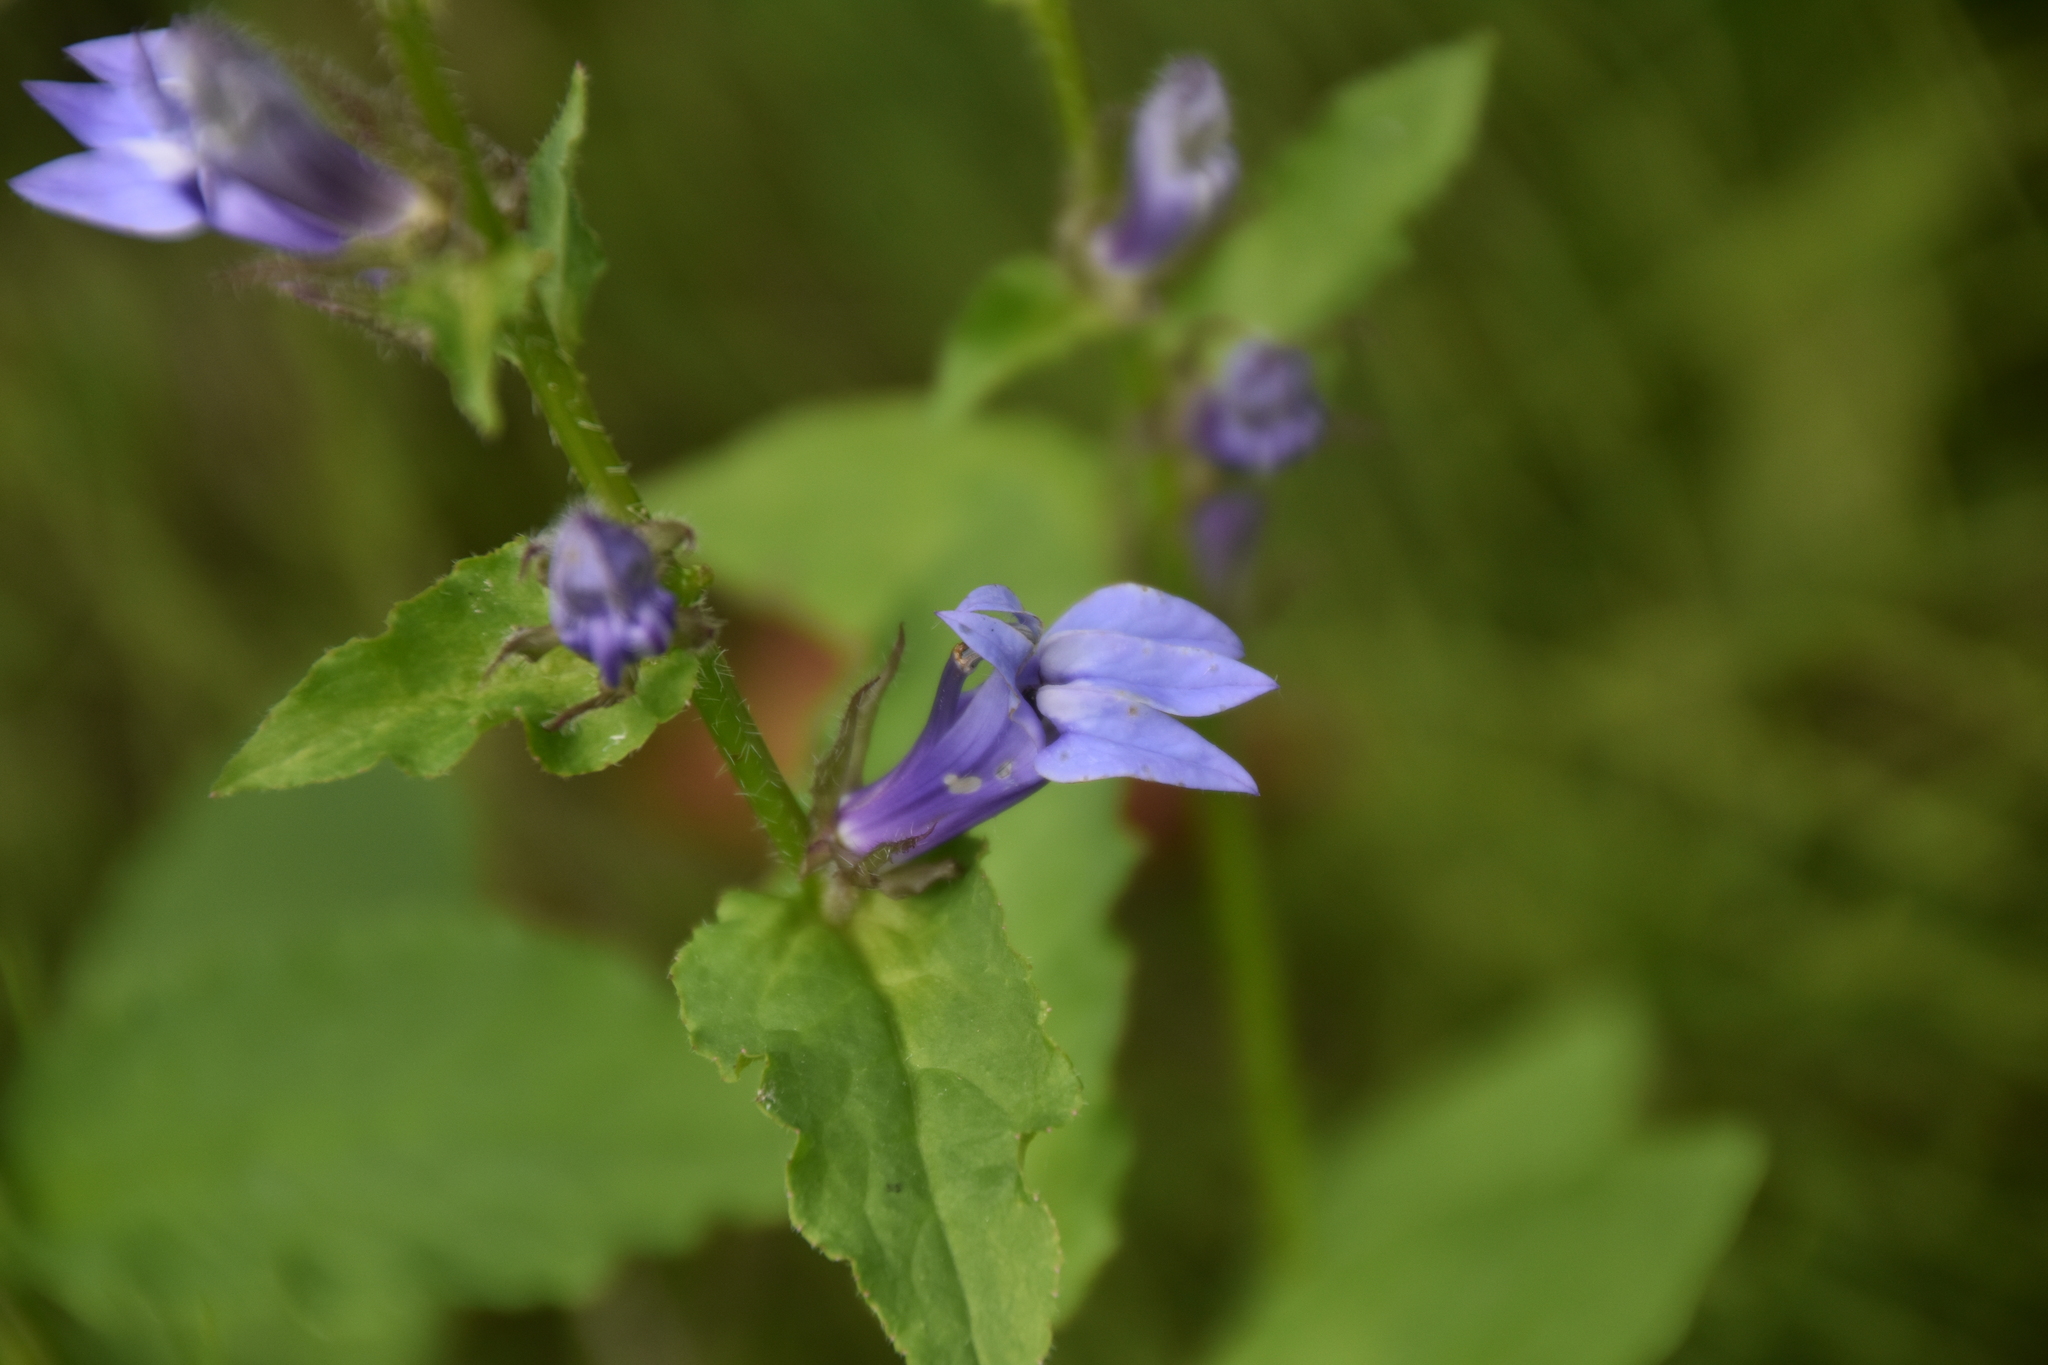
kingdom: Plantae
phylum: Tracheophyta
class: Magnoliopsida
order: Asterales
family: Campanulaceae
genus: Lobelia
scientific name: Lobelia siphilitica
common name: Great lobelia
